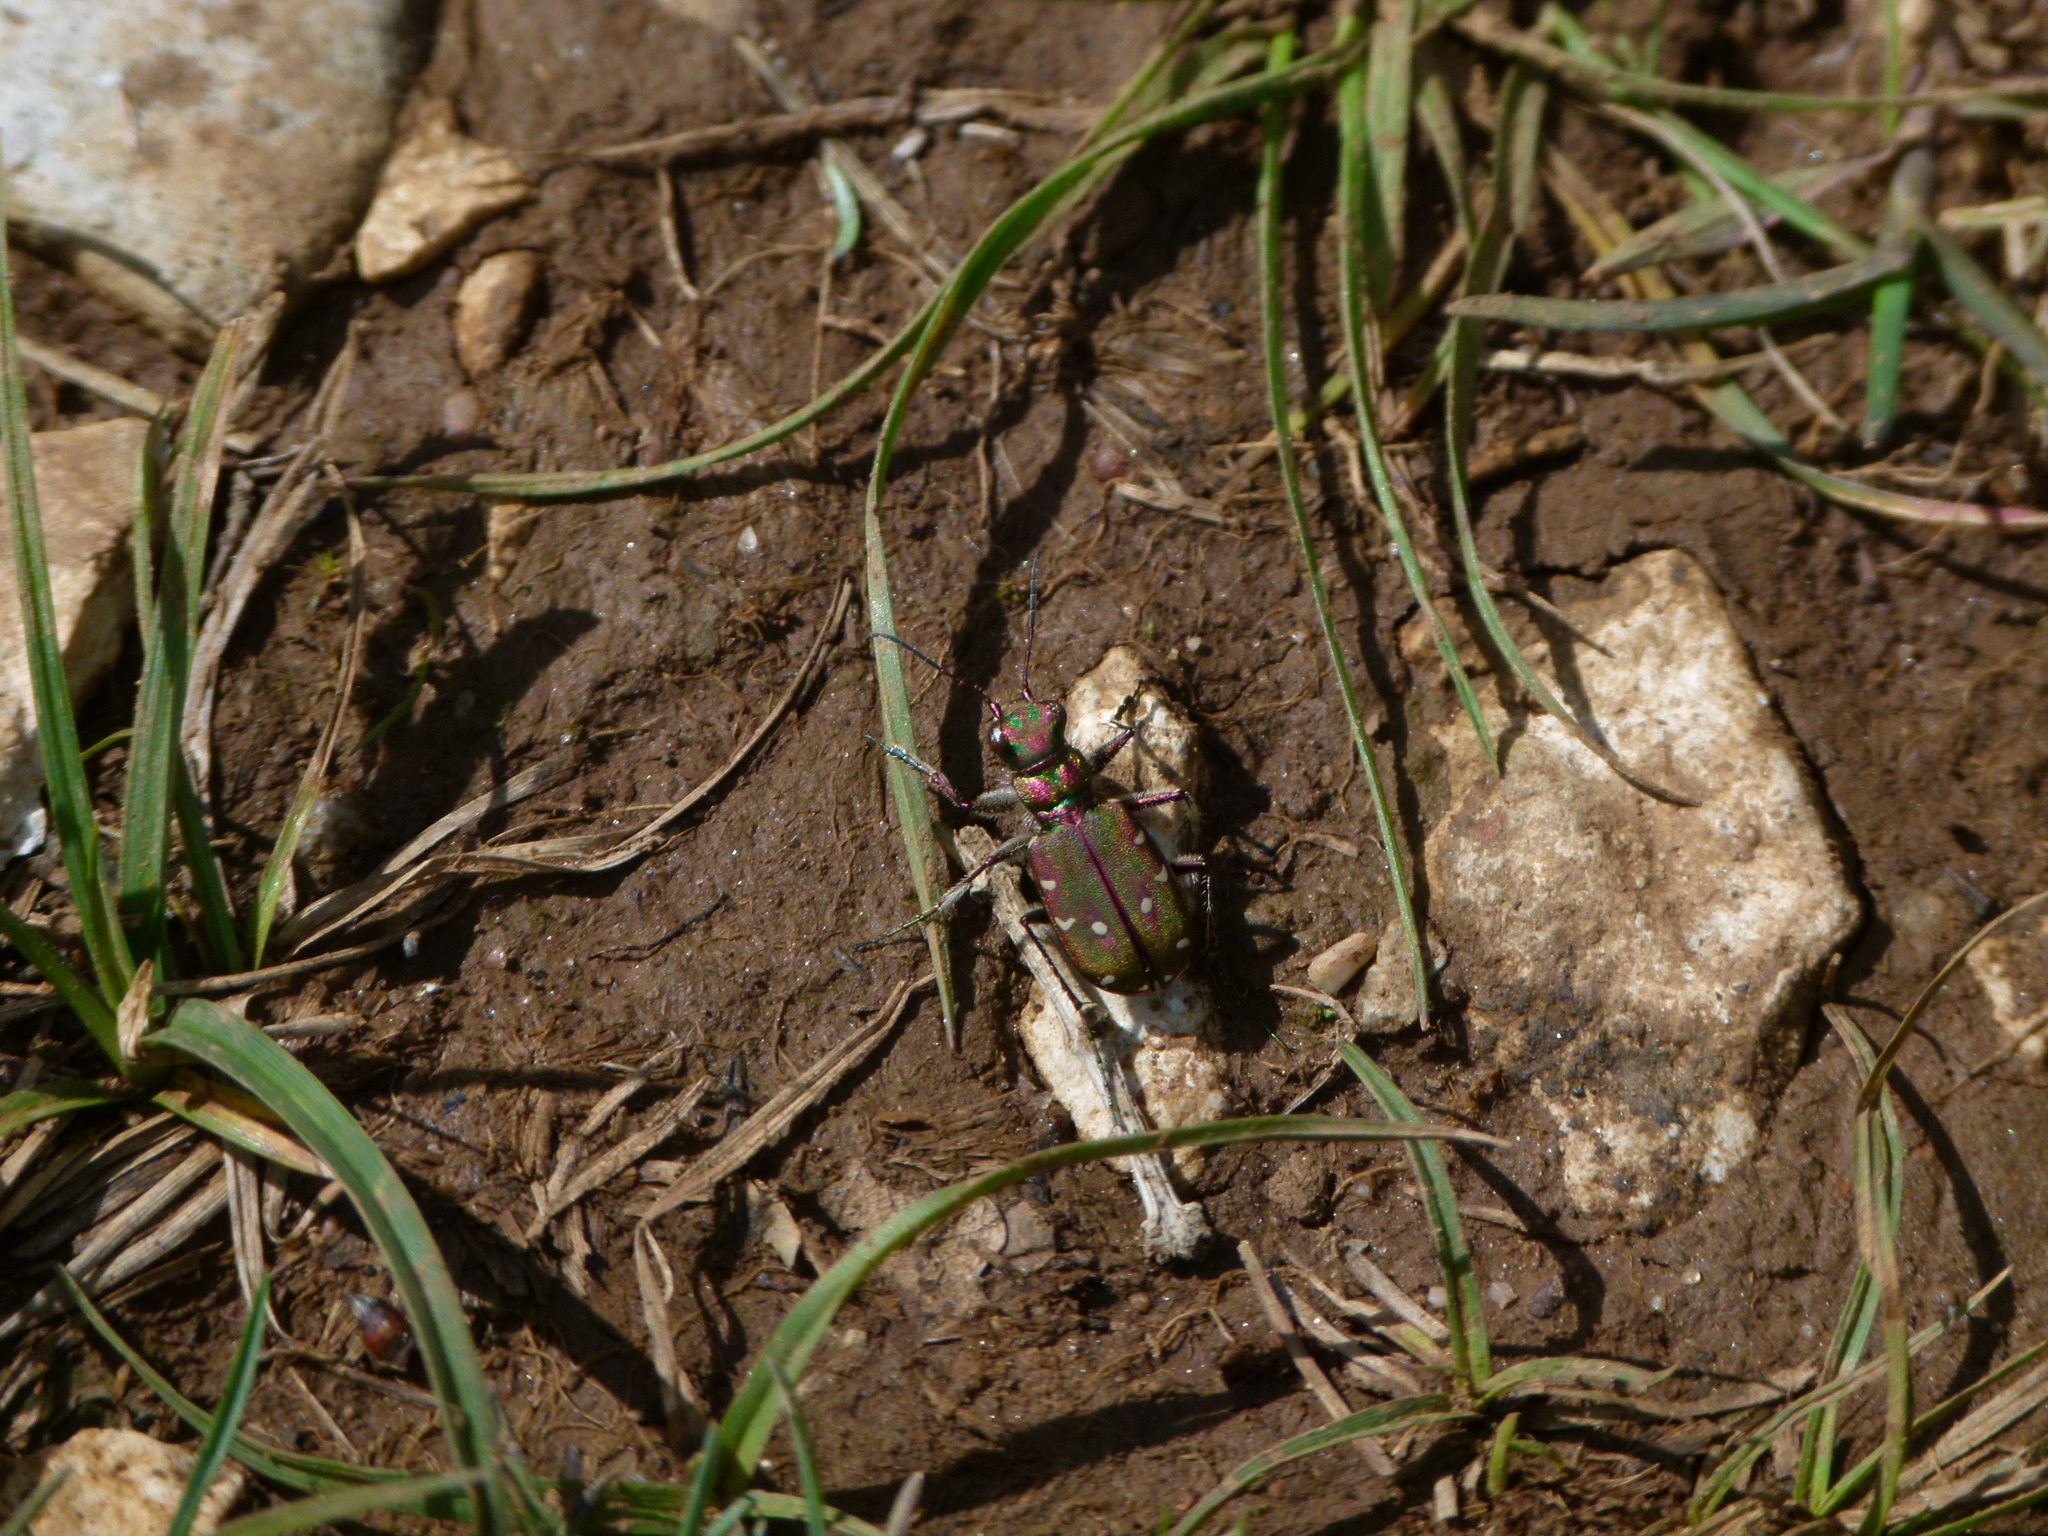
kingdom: Animalia
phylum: Arthropoda
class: Insecta
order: Coleoptera
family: Carabidae
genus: Cicindela
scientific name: Cicindela maroccana
